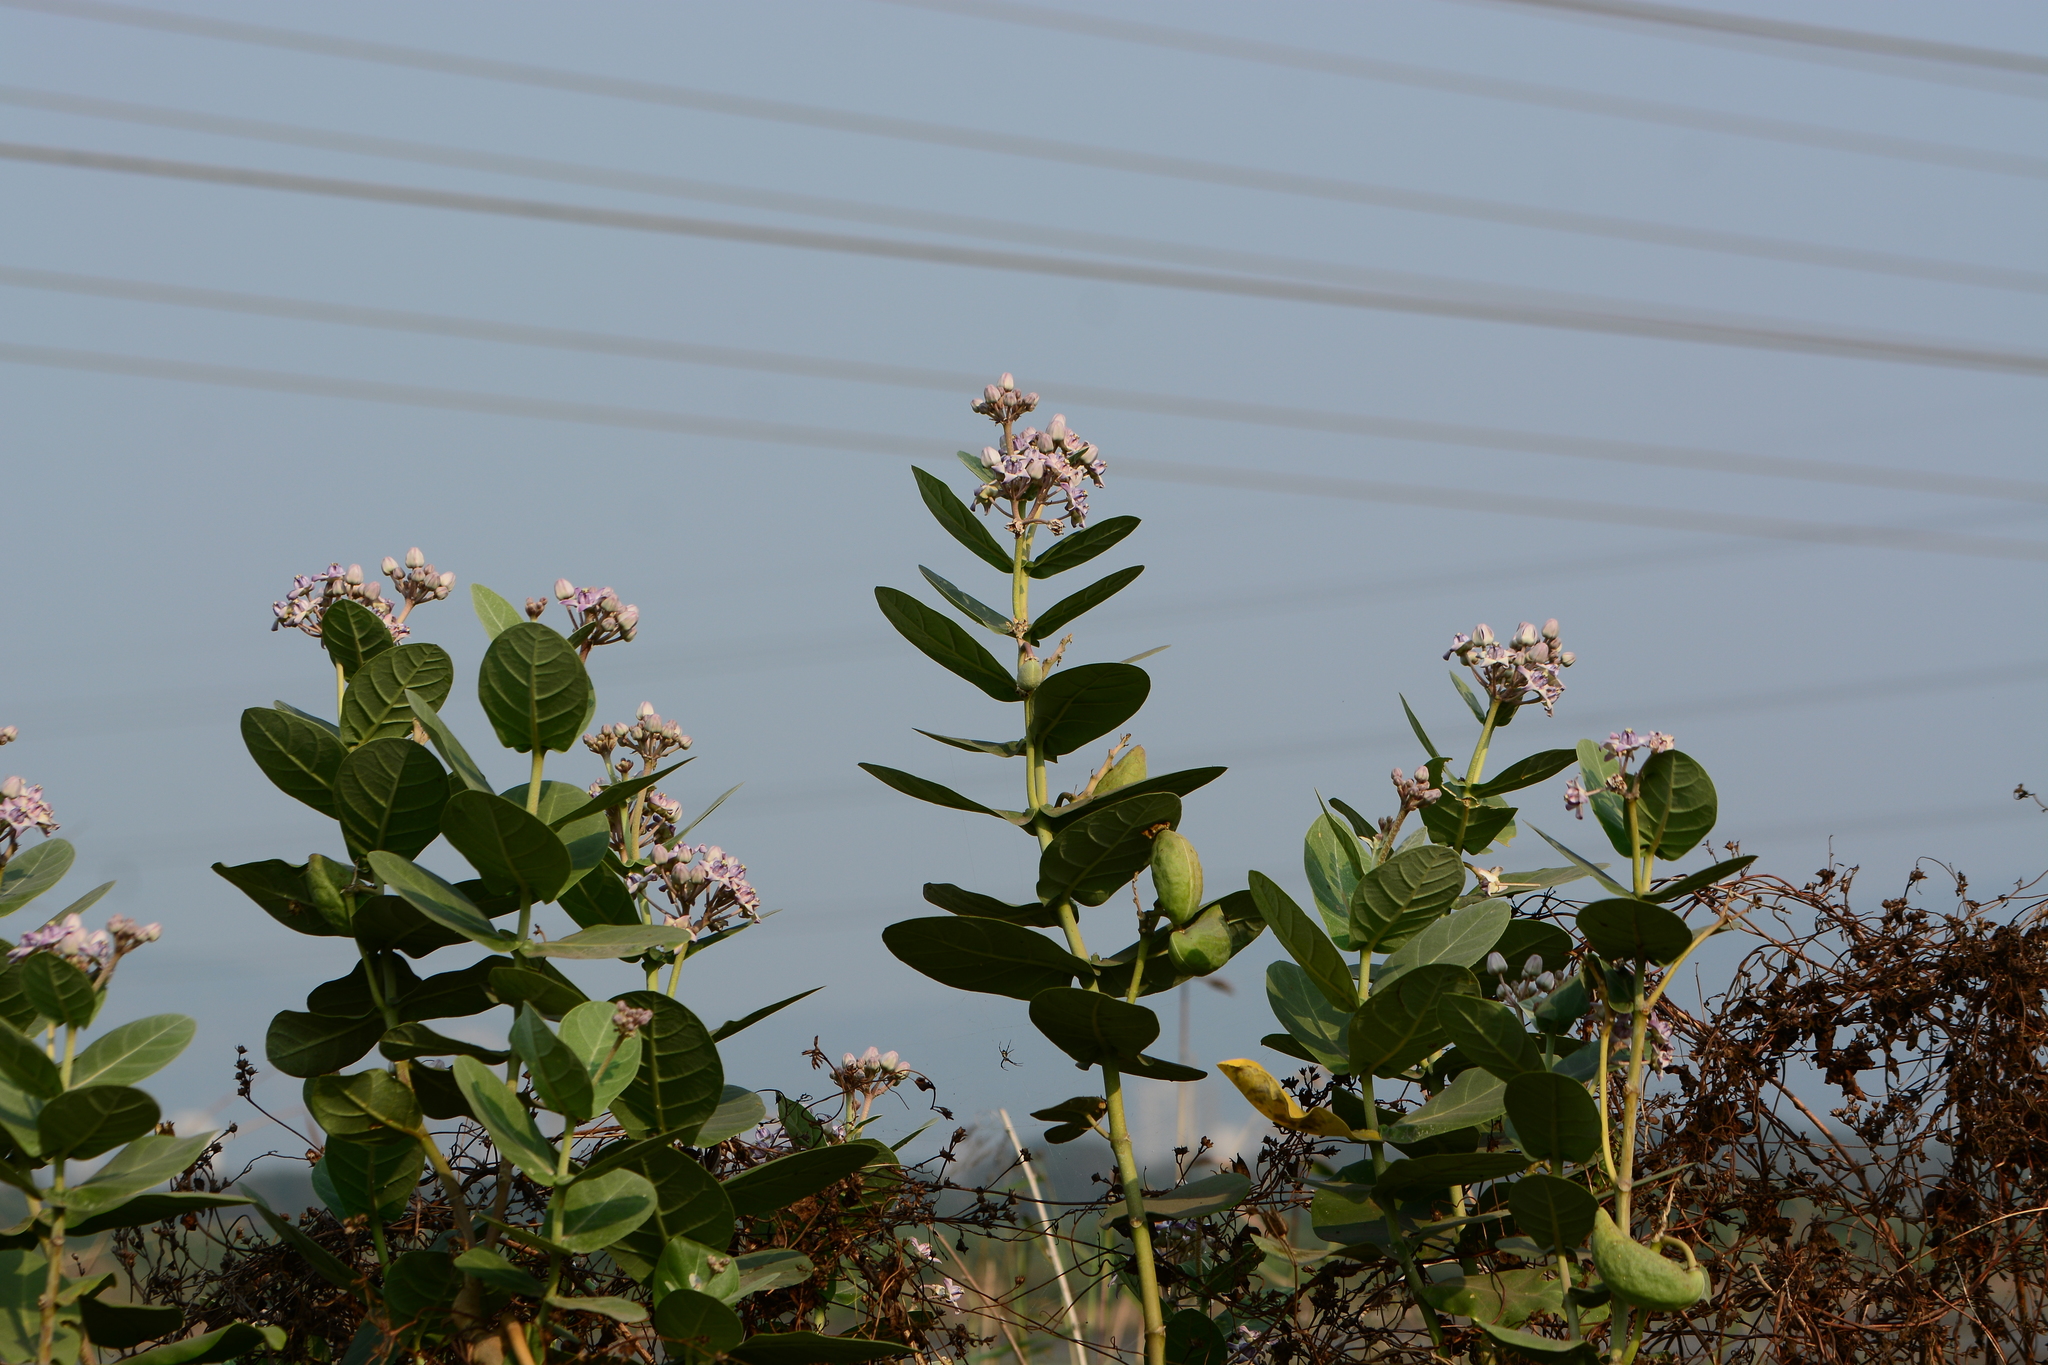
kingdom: Plantae
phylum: Tracheophyta
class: Magnoliopsida
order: Gentianales
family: Apocynaceae
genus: Calotropis
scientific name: Calotropis gigantea
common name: Crown flower
